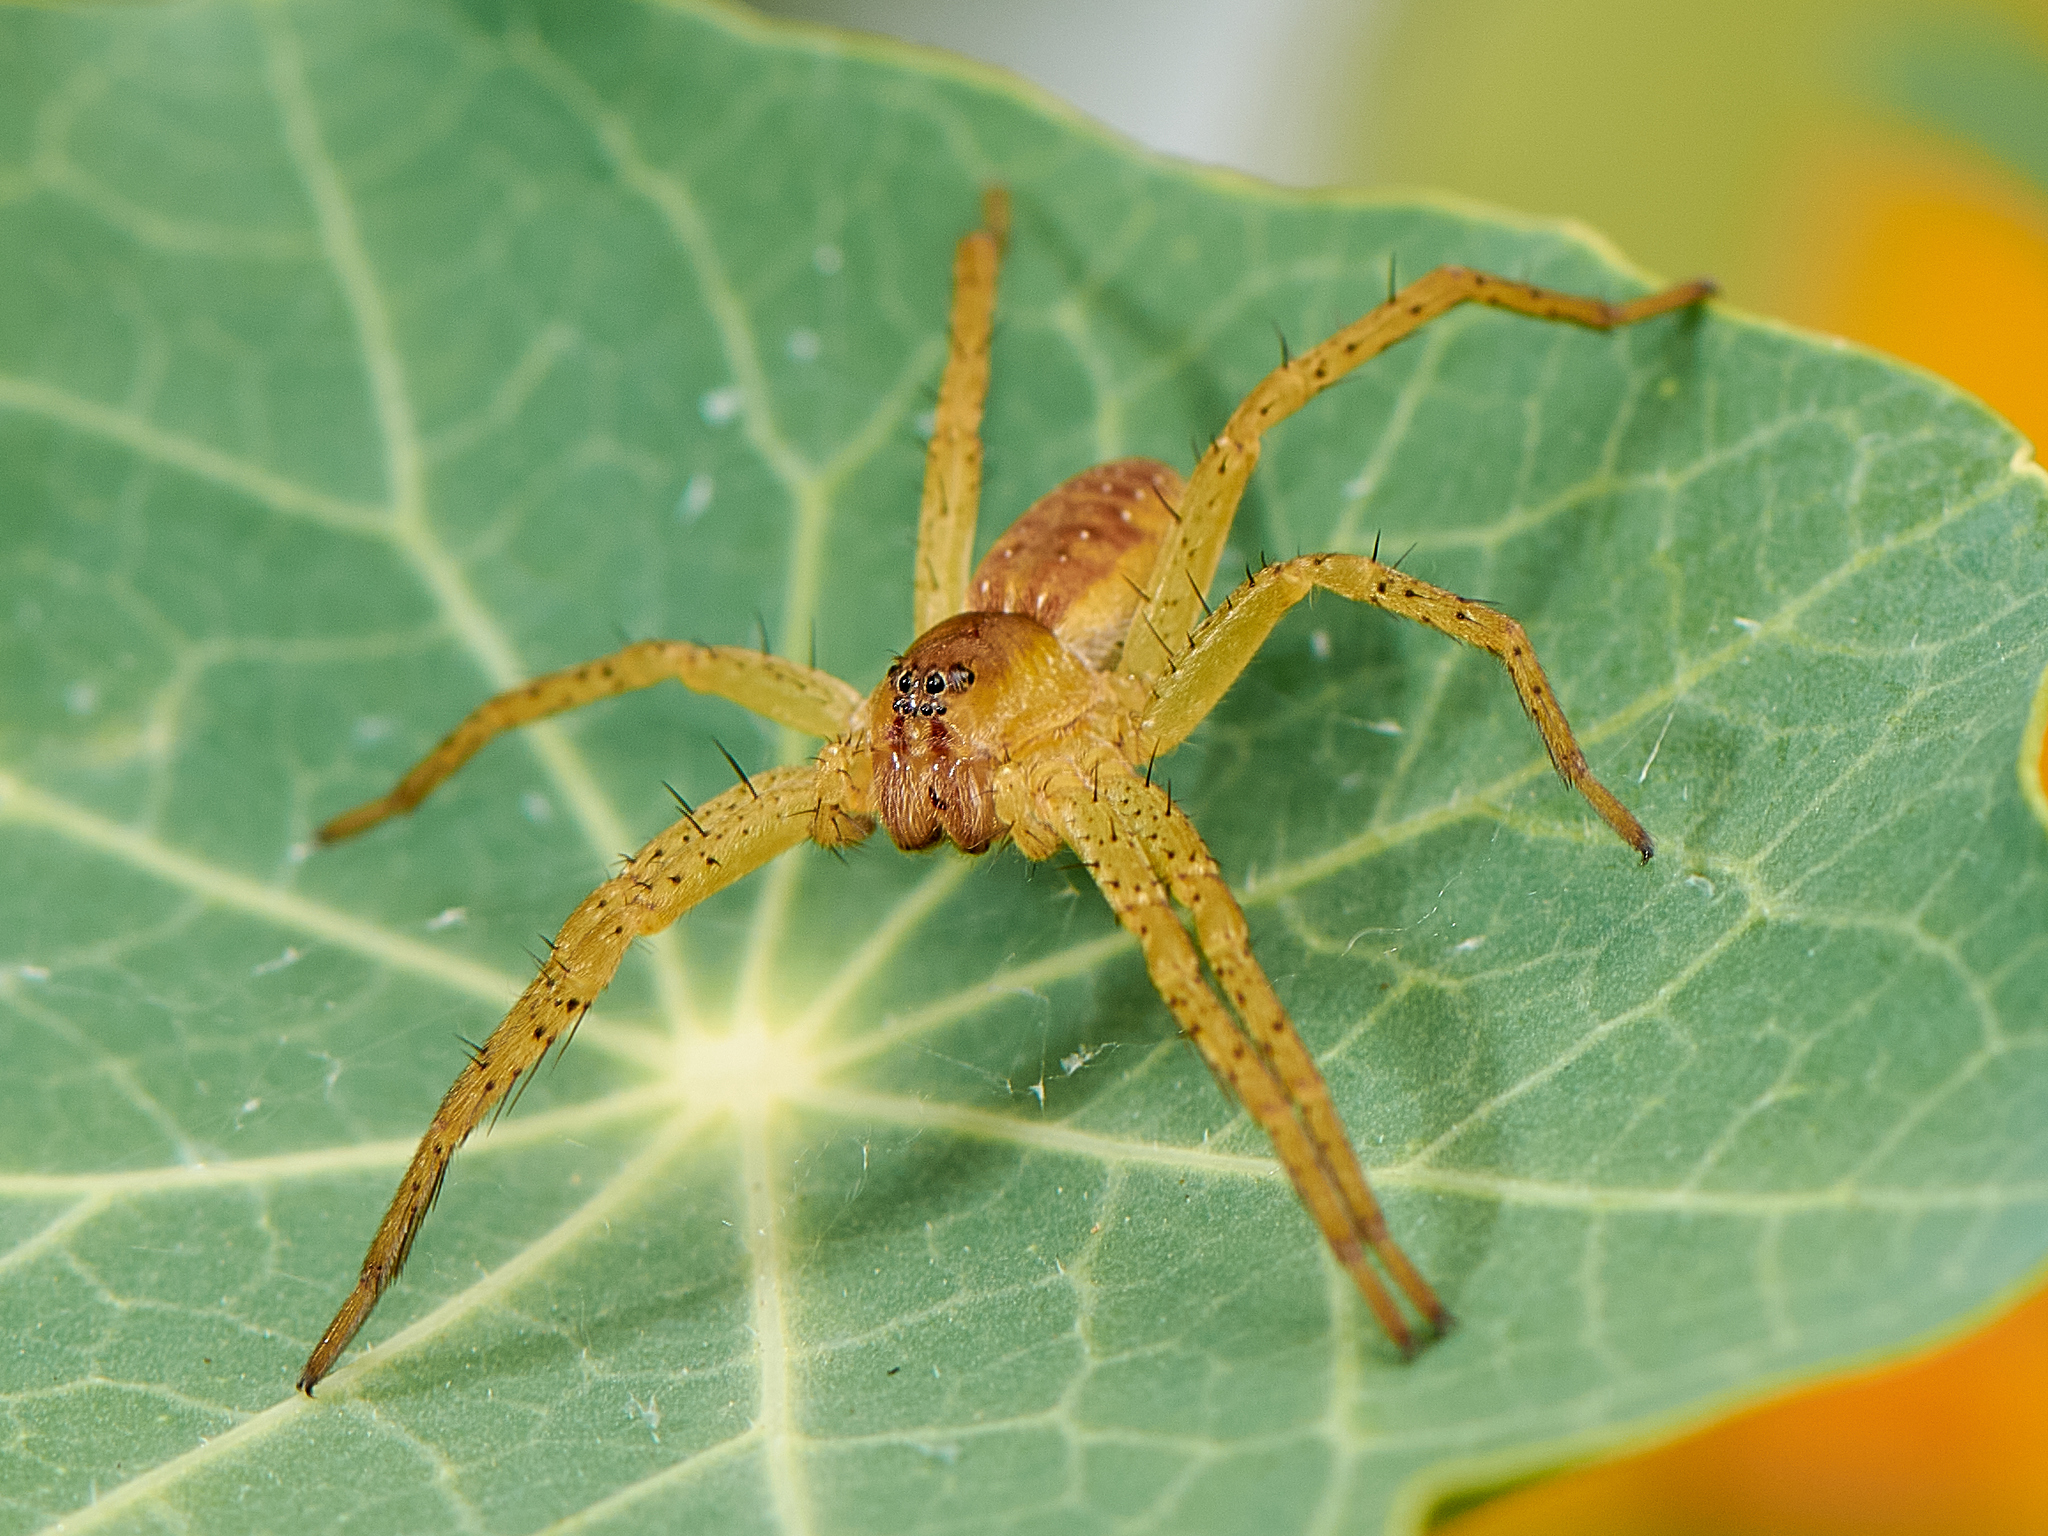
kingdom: Animalia
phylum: Arthropoda
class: Arachnida
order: Araneae
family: Pisauridae
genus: Dolomedes
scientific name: Dolomedes
